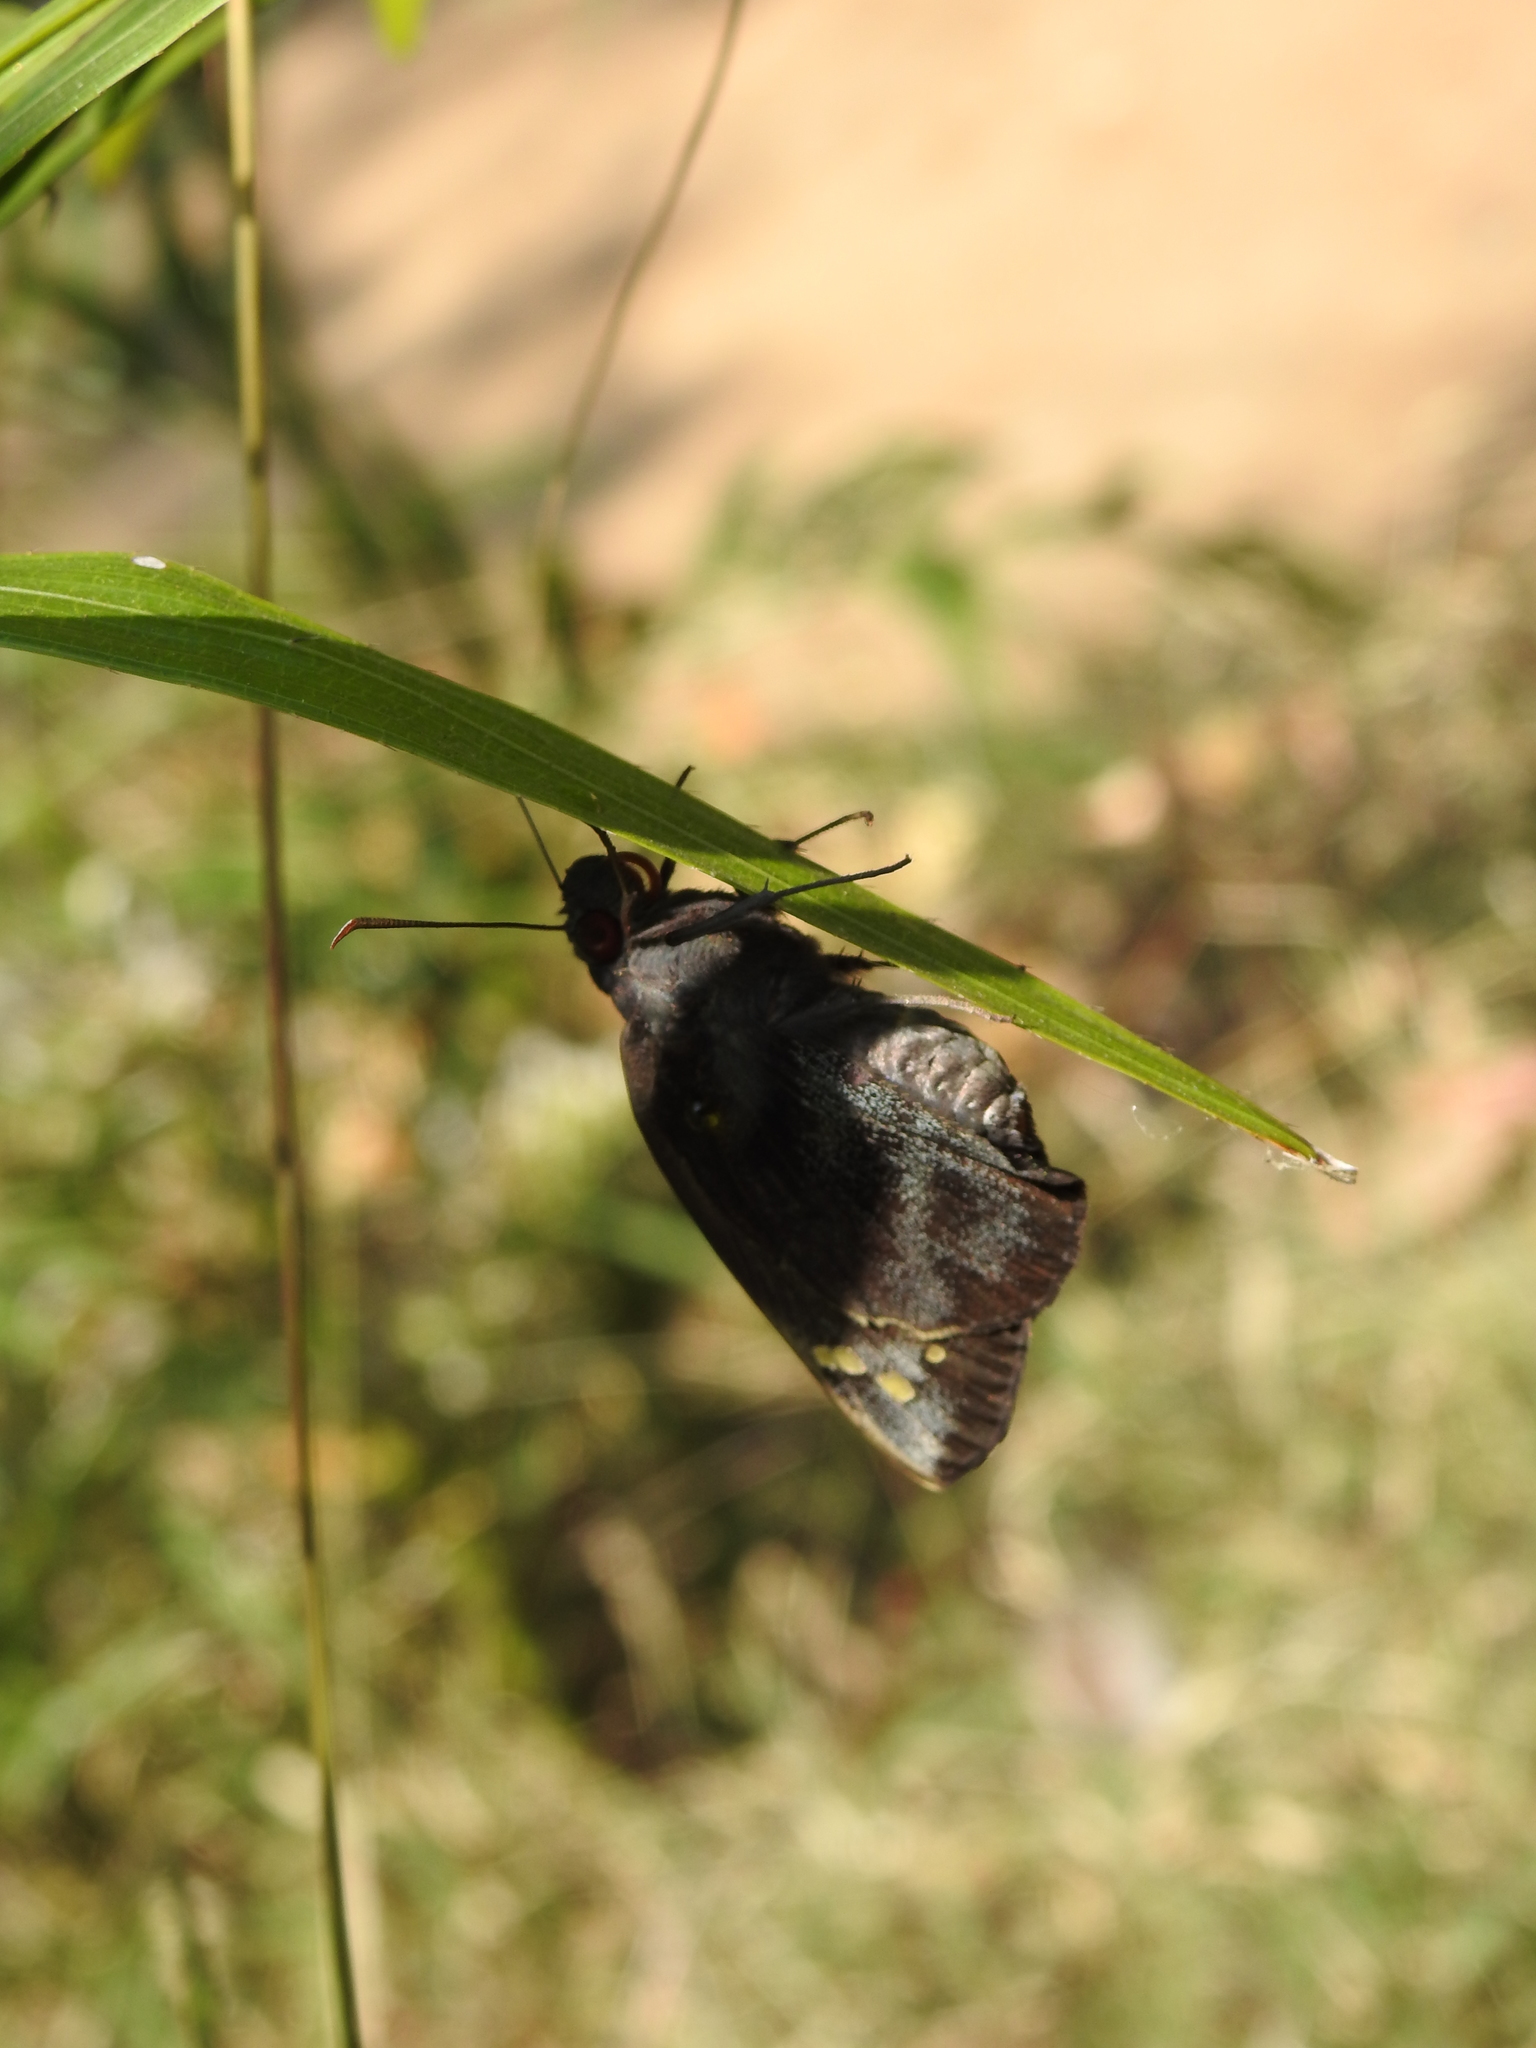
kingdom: Animalia
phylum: Arthropoda
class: Insecta
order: Lepidoptera
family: Hesperiidae
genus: Gangara
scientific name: Gangara thyrsis
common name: Giant redeye
